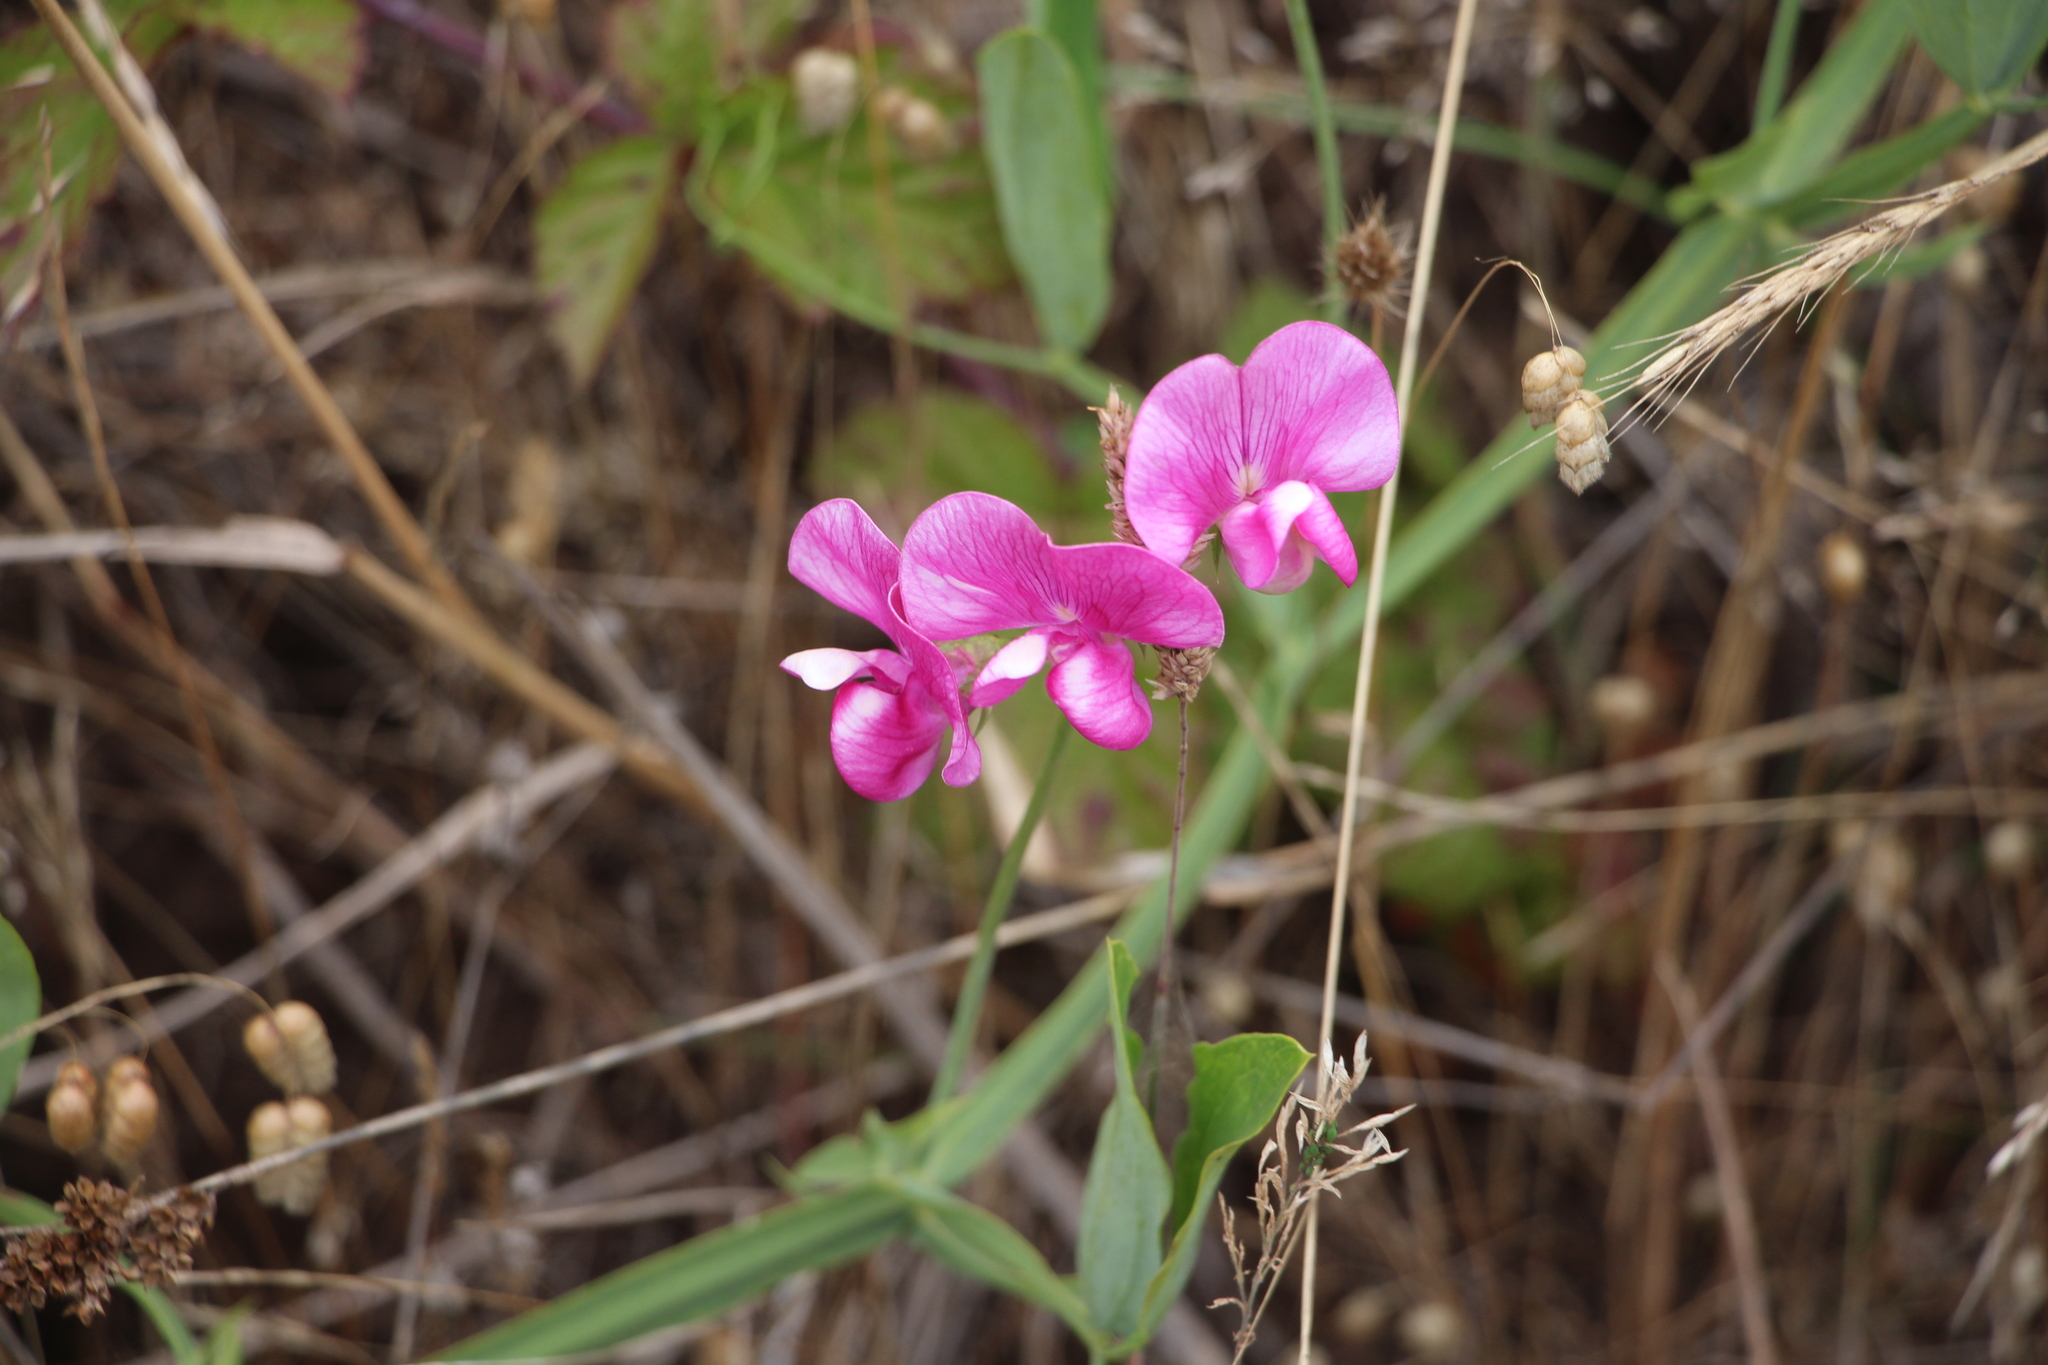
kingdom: Plantae
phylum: Tracheophyta
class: Magnoliopsida
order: Fabales
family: Fabaceae
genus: Lathyrus
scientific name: Lathyrus latifolius
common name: Perennial pea
